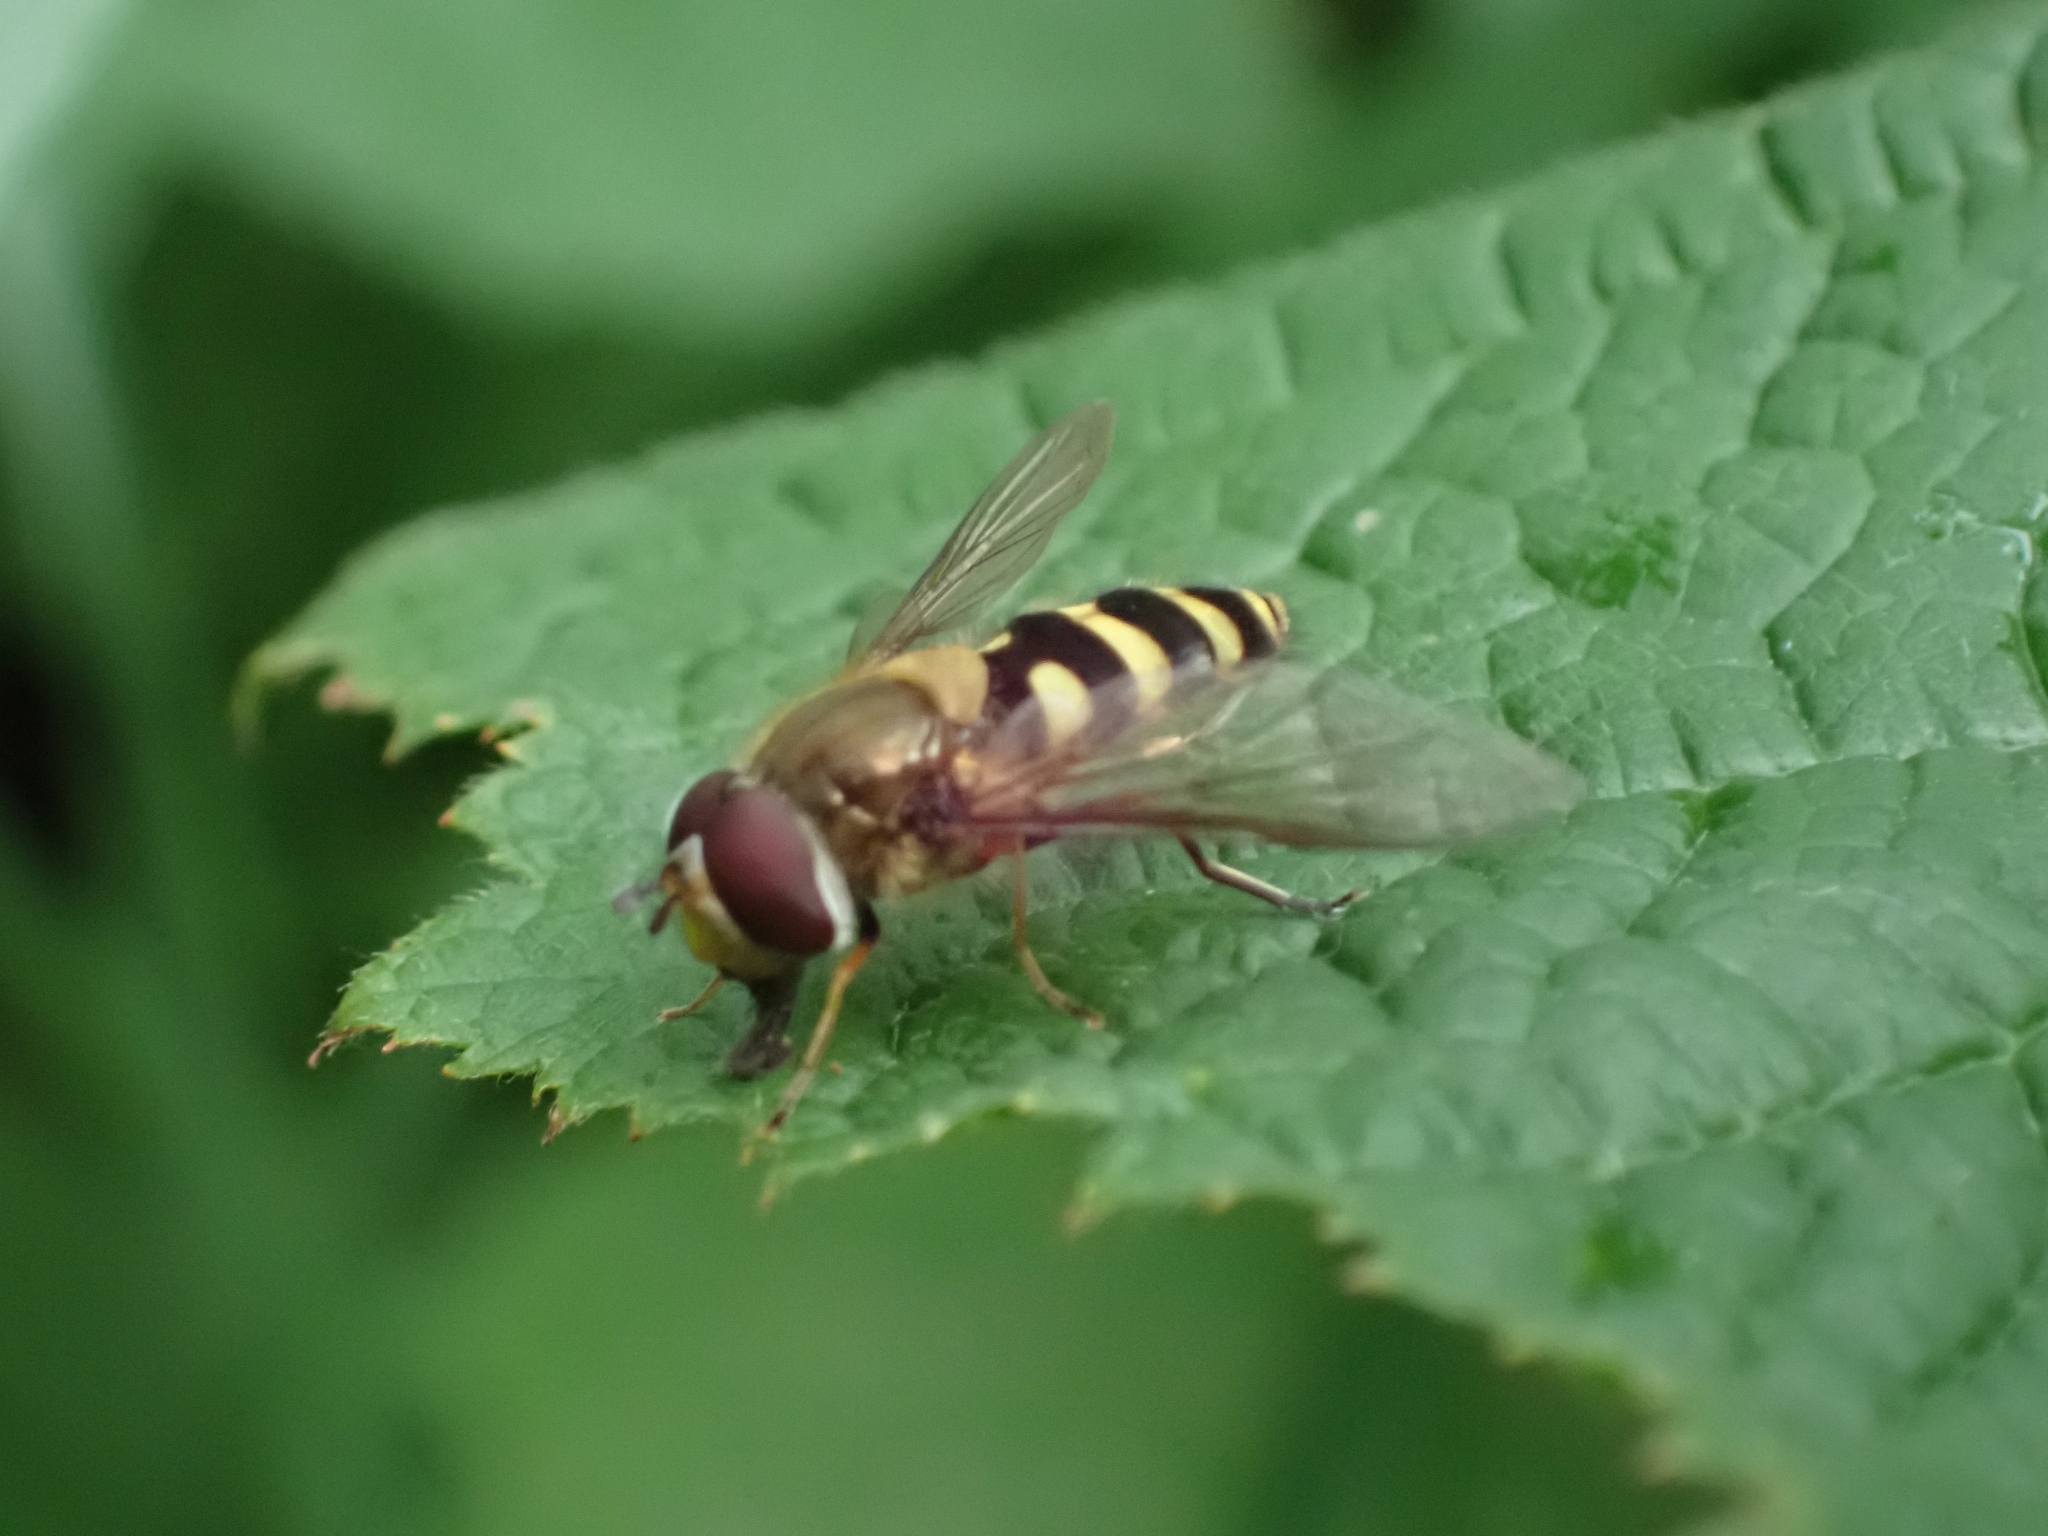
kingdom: Animalia
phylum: Arthropoda
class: Insecta
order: Diptera
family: Syrphidae
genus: Syrphus
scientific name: Syrphus
